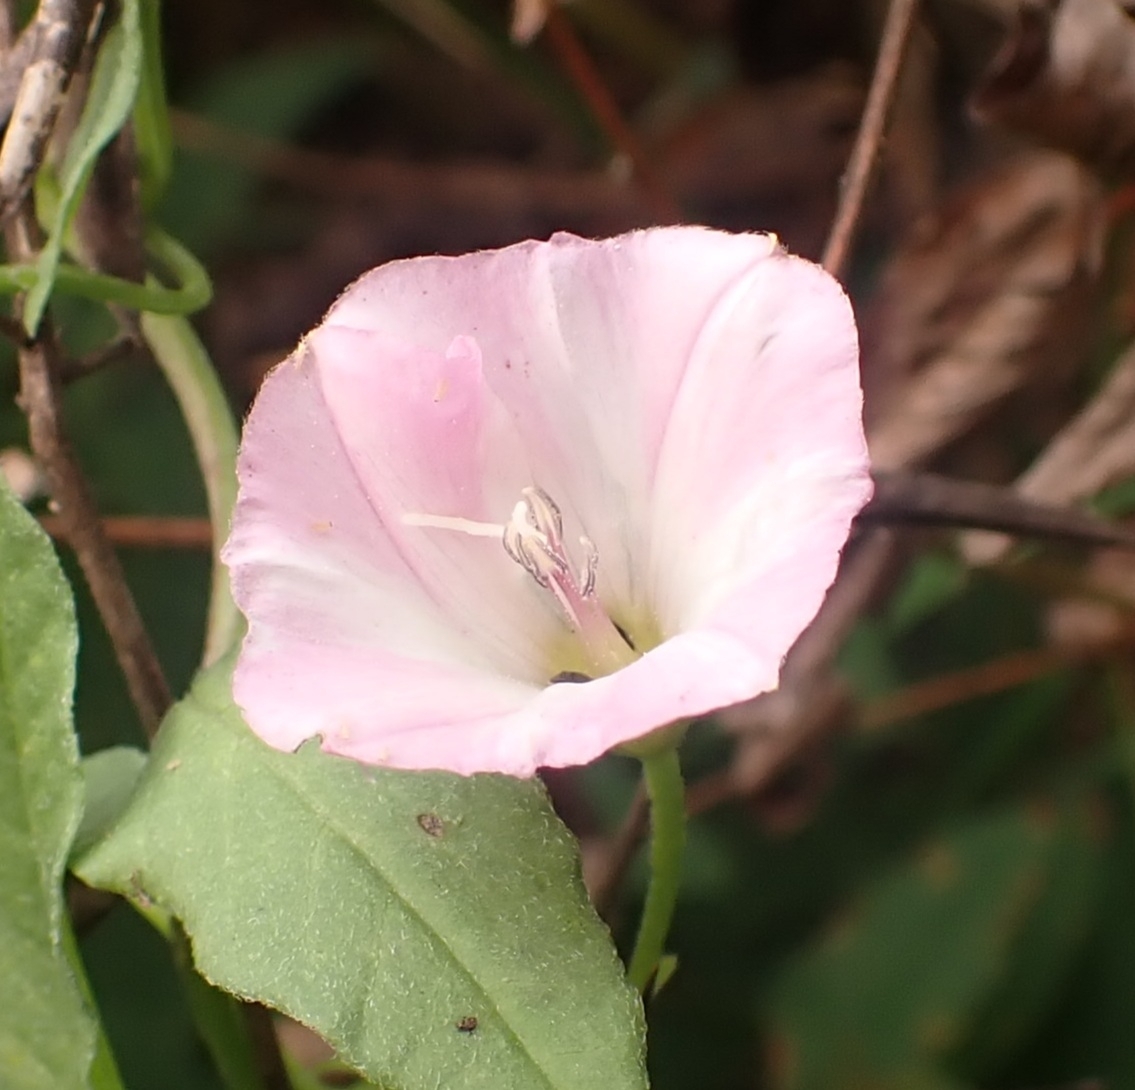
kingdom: Plantae
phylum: Tracheophyta
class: Magnoliopsida
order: Solanales
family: Convolvulaceae
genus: Convolvulus
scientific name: Convolvulus arvensis
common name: Field bindweed
